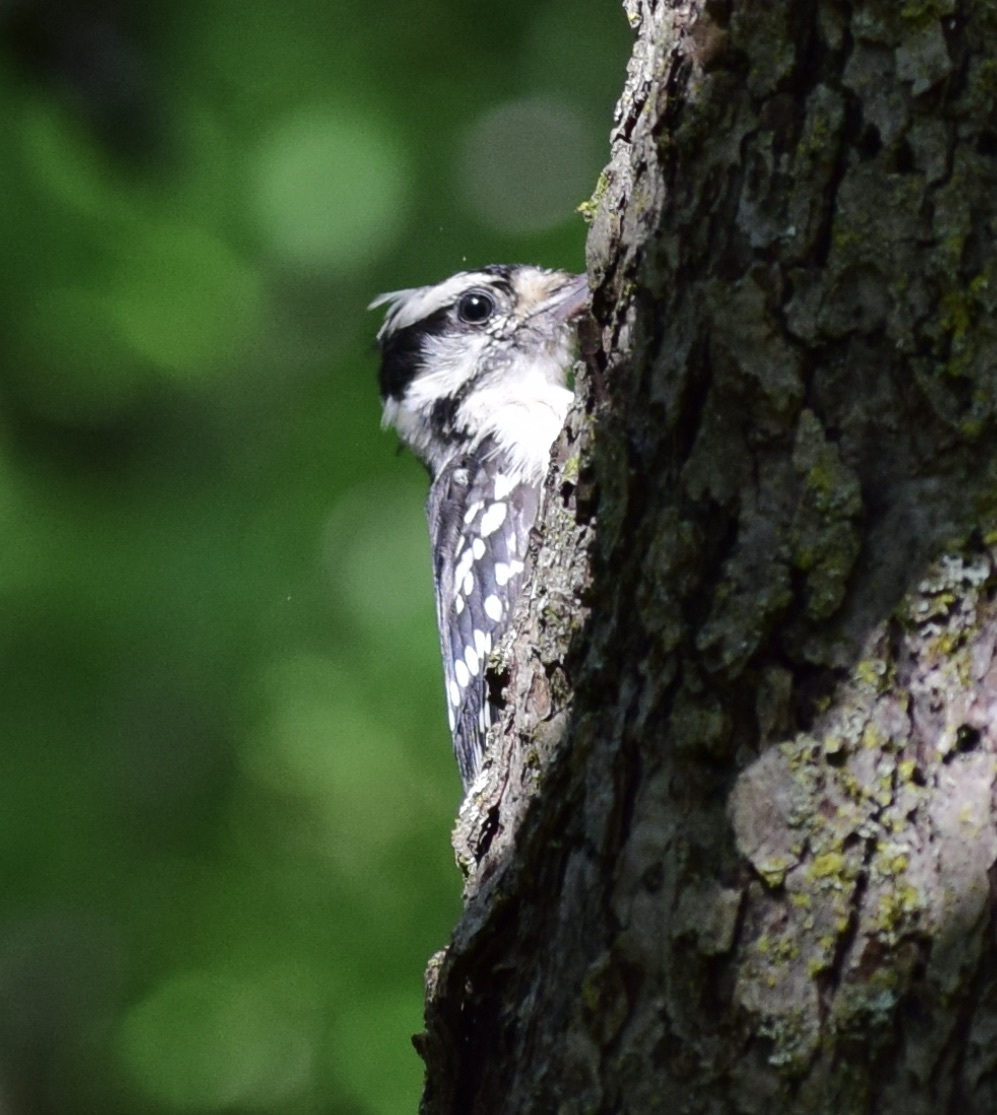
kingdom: Animalia
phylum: Chordata
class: Aves
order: Piciformes
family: Picidae
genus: Dryobates
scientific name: Dryobates pubescens
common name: Downy woodpecker
